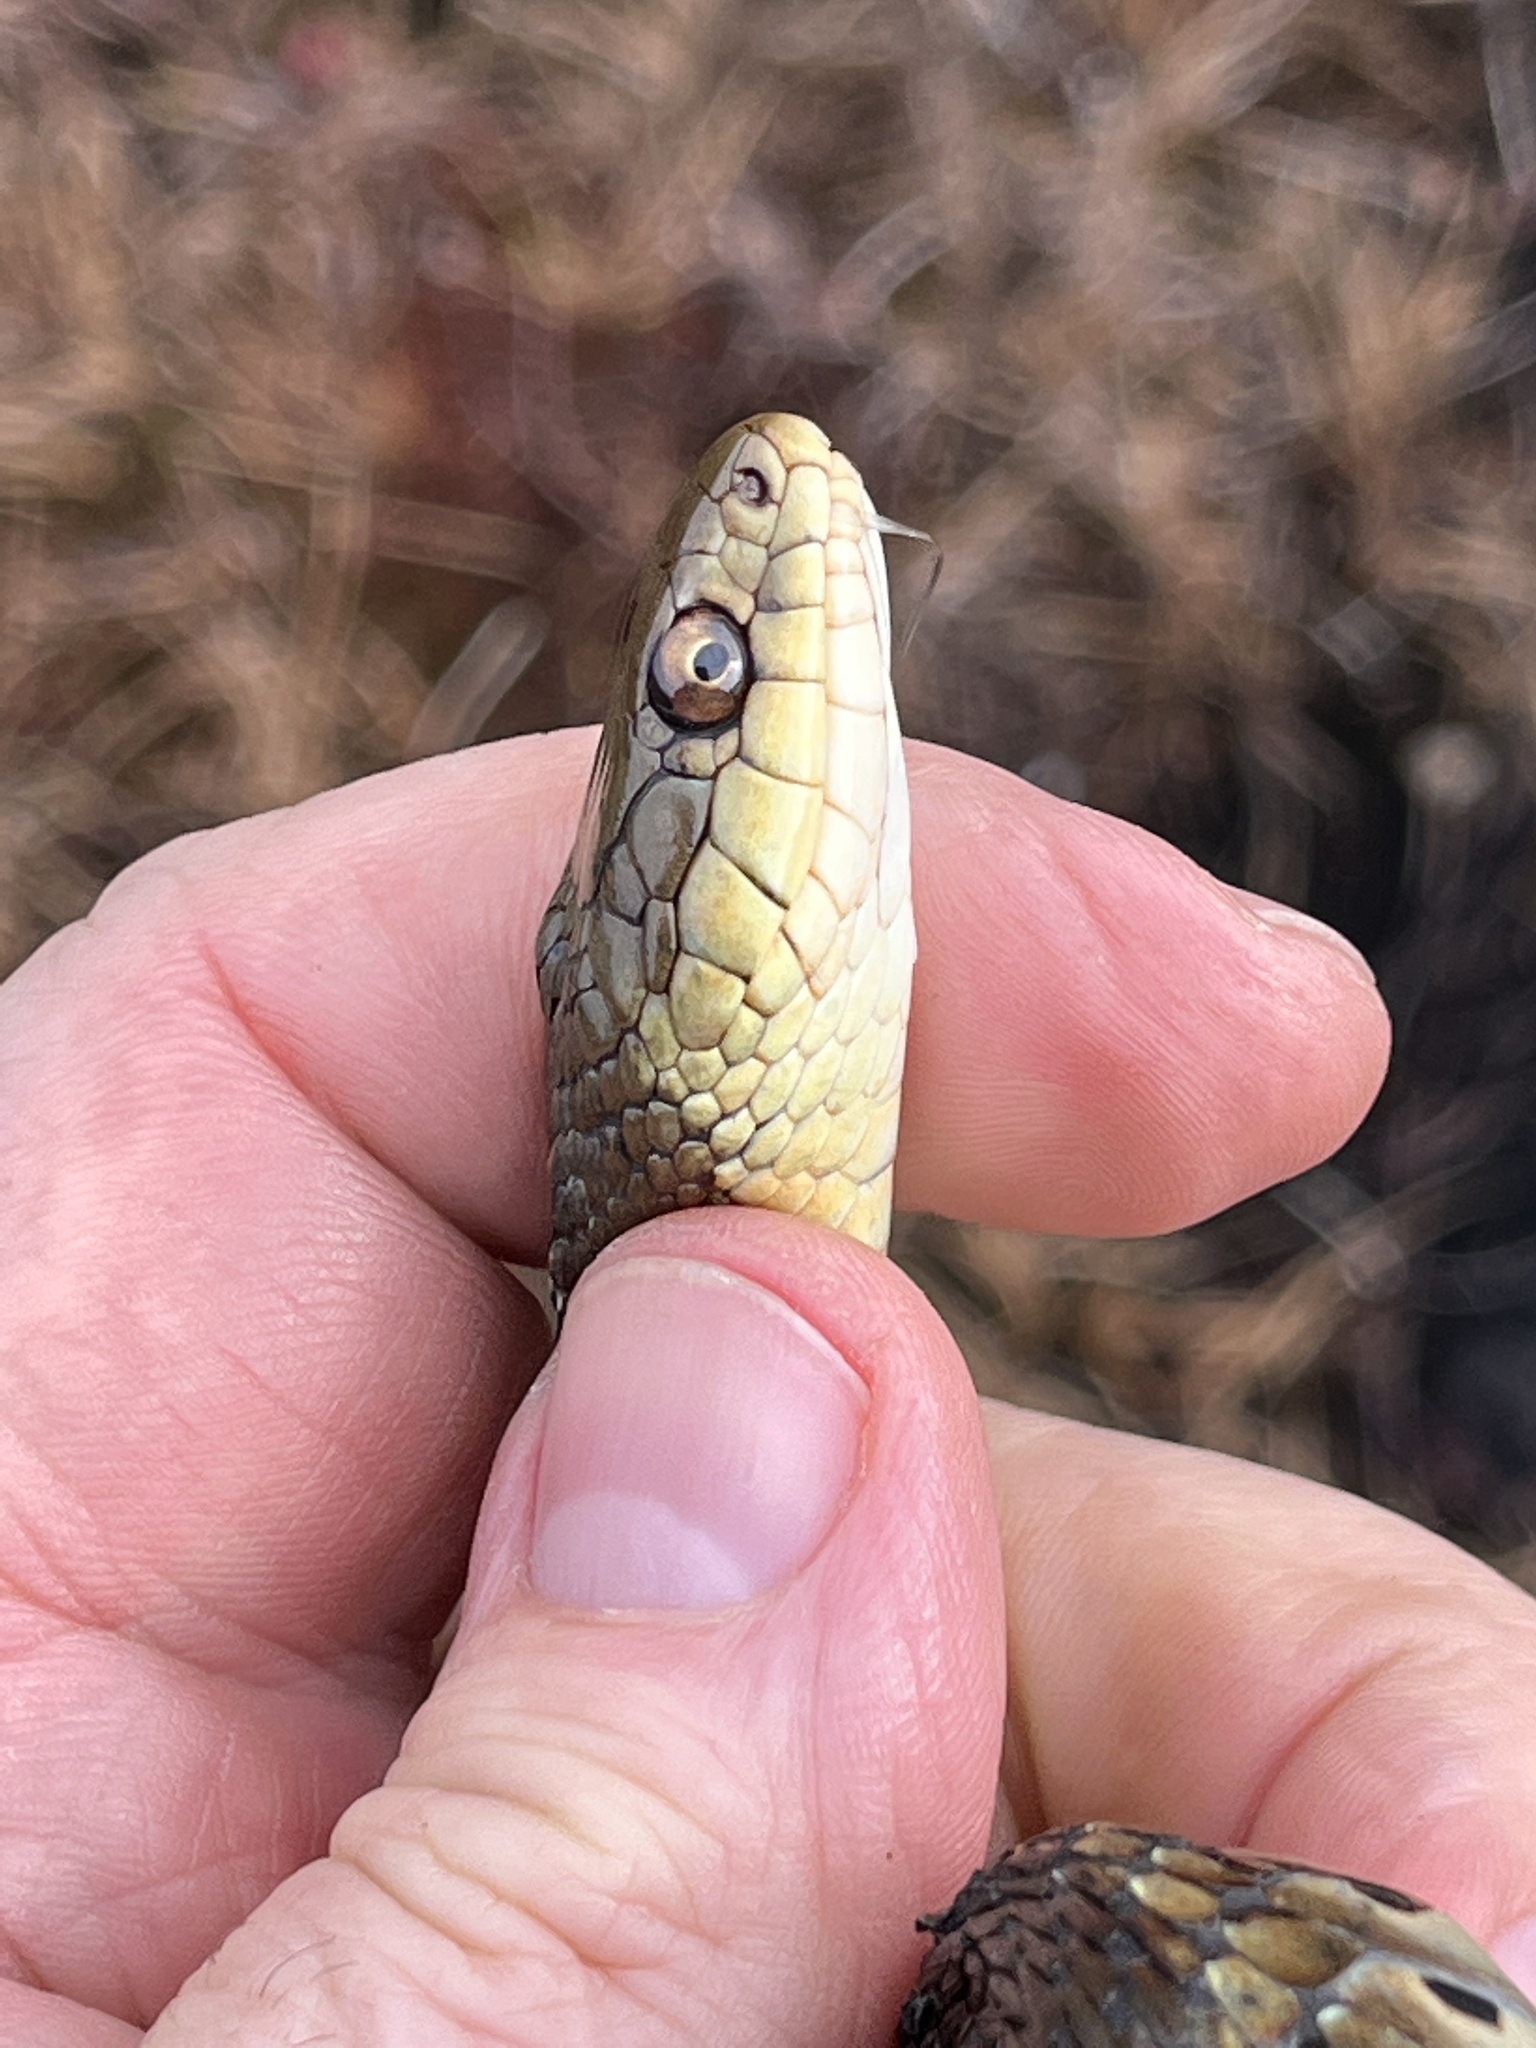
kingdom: Animalia
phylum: Chordata
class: Squamata
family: Colubridae
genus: Thamnophis
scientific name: Thamnophis sirtalis
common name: Common garter snake
